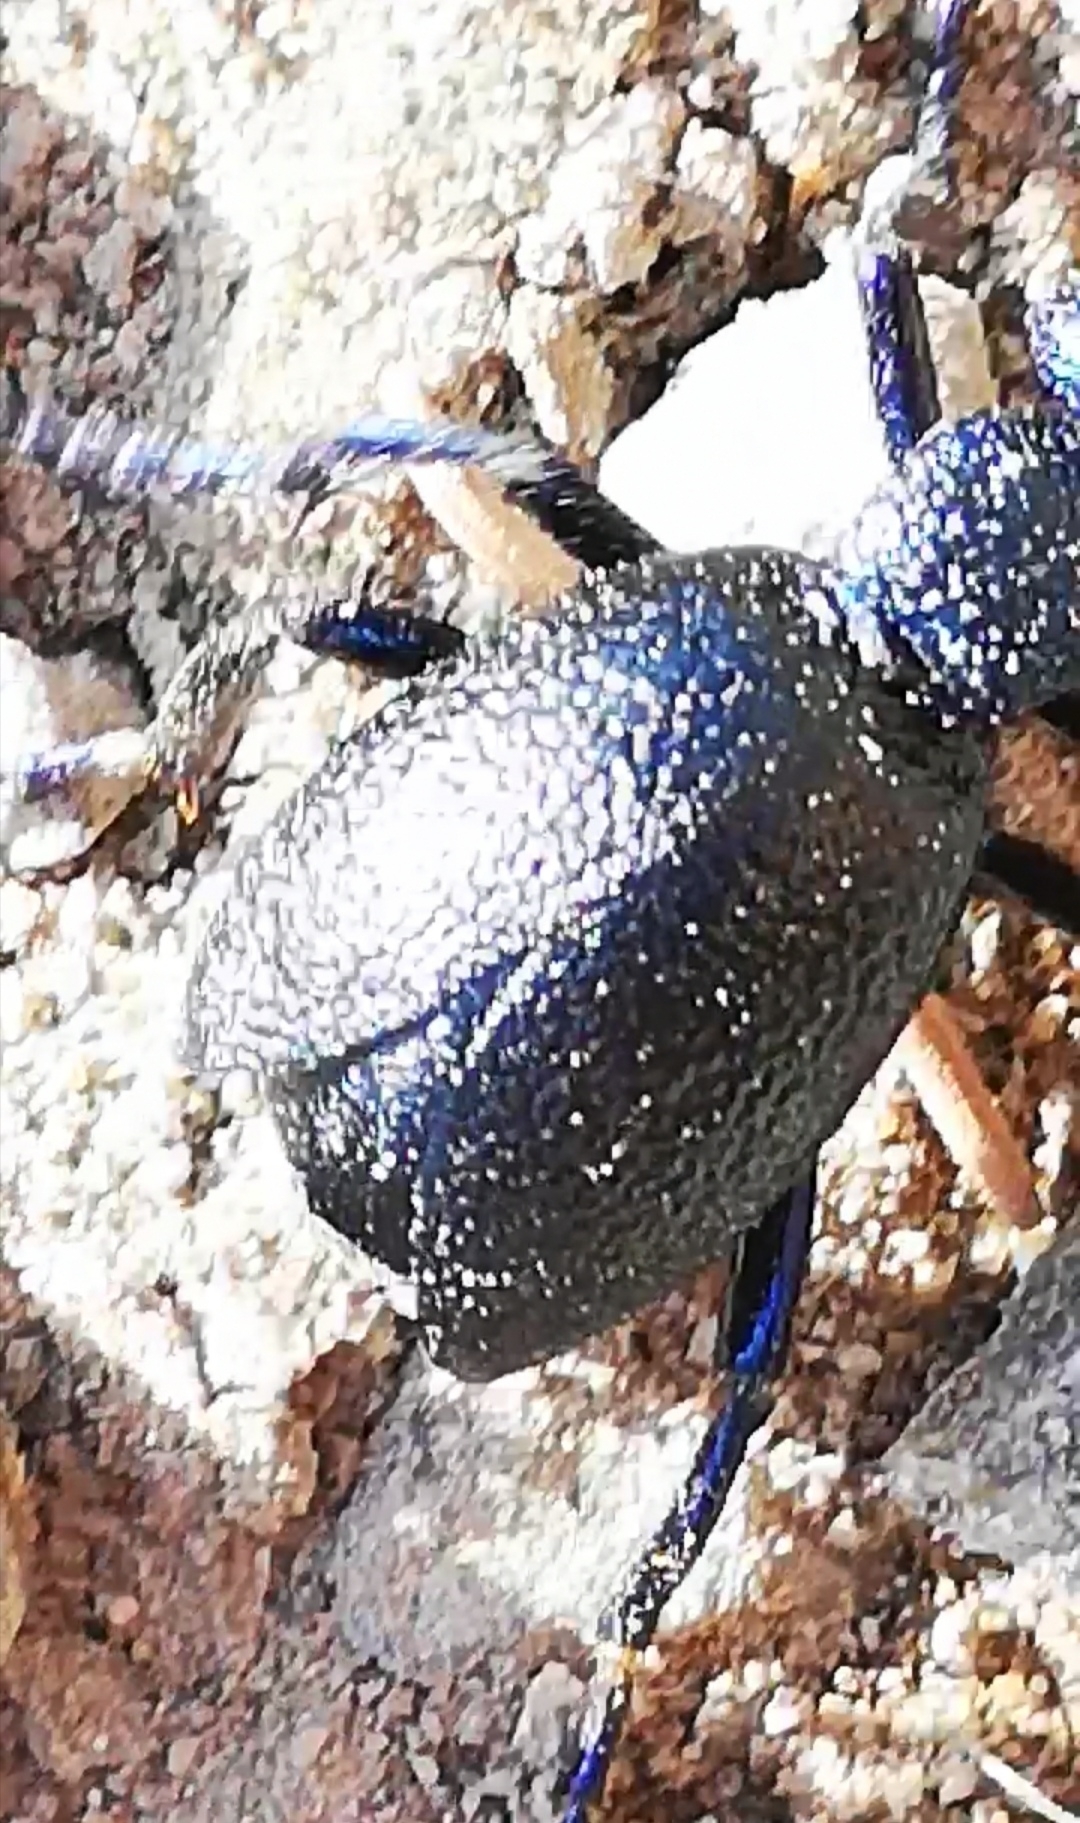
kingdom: Animalia
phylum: Arthropoda
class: Insecta
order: Coleoptera
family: Meloidae
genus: Meloe
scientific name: Meloe proscarabaeus
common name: Black oil-beetle
